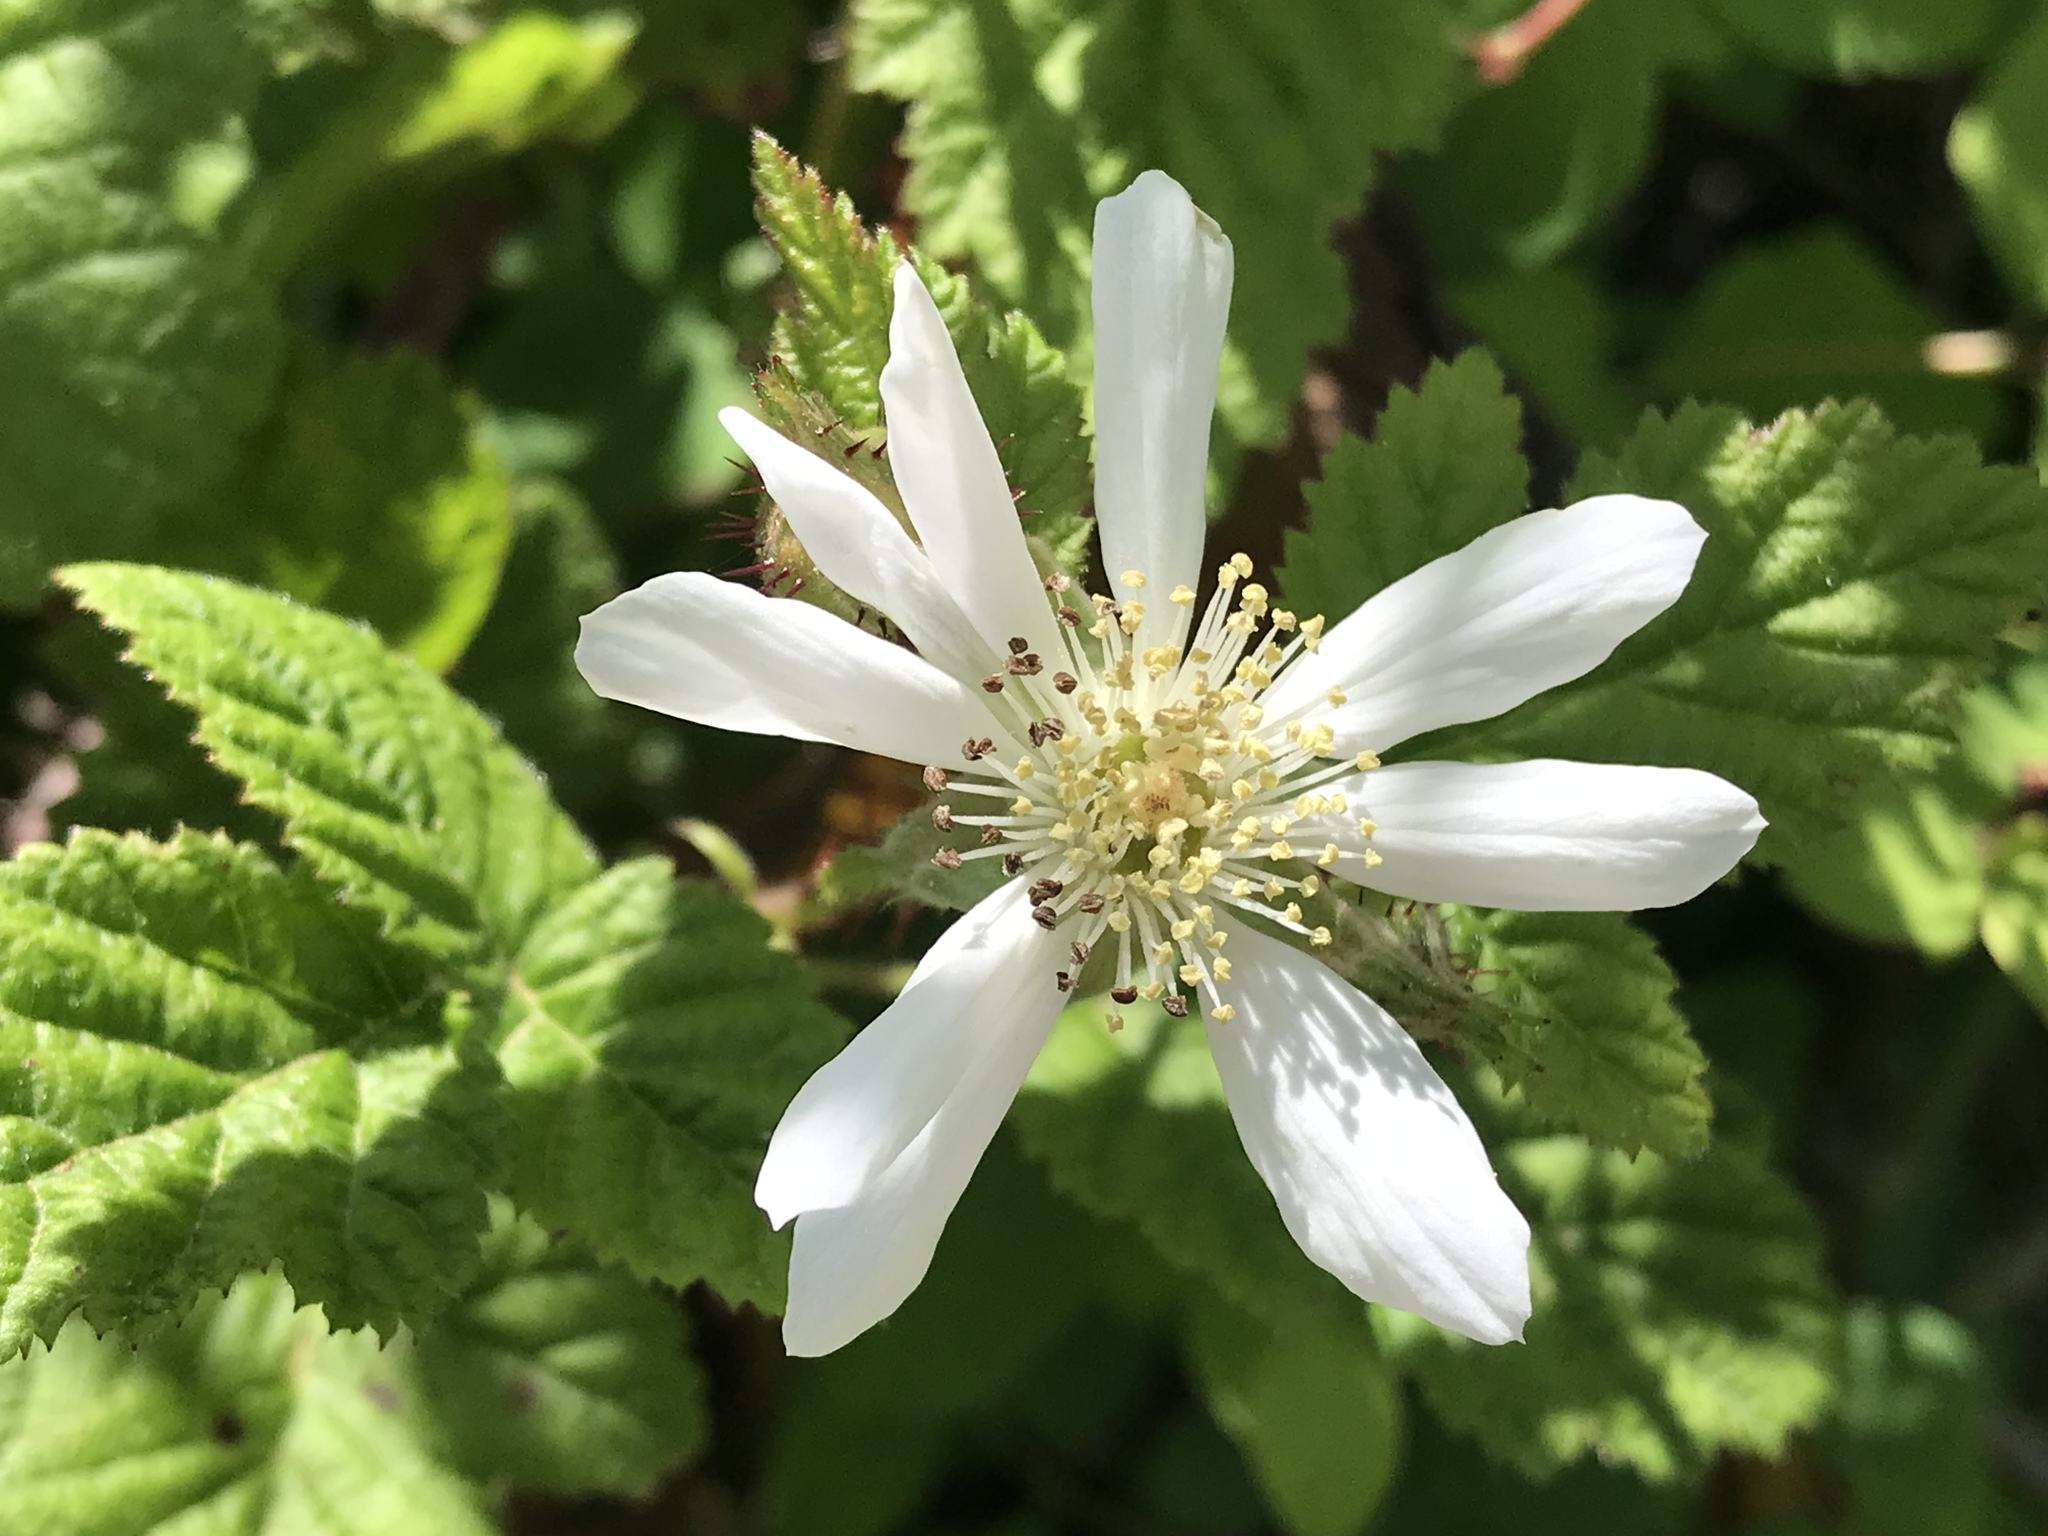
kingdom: Plantae
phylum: Tracheophyta
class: Magnoliopsida
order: Rosales
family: Rosaceae
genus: Rubus
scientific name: Rubus ursinus
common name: Pacific blackberry
